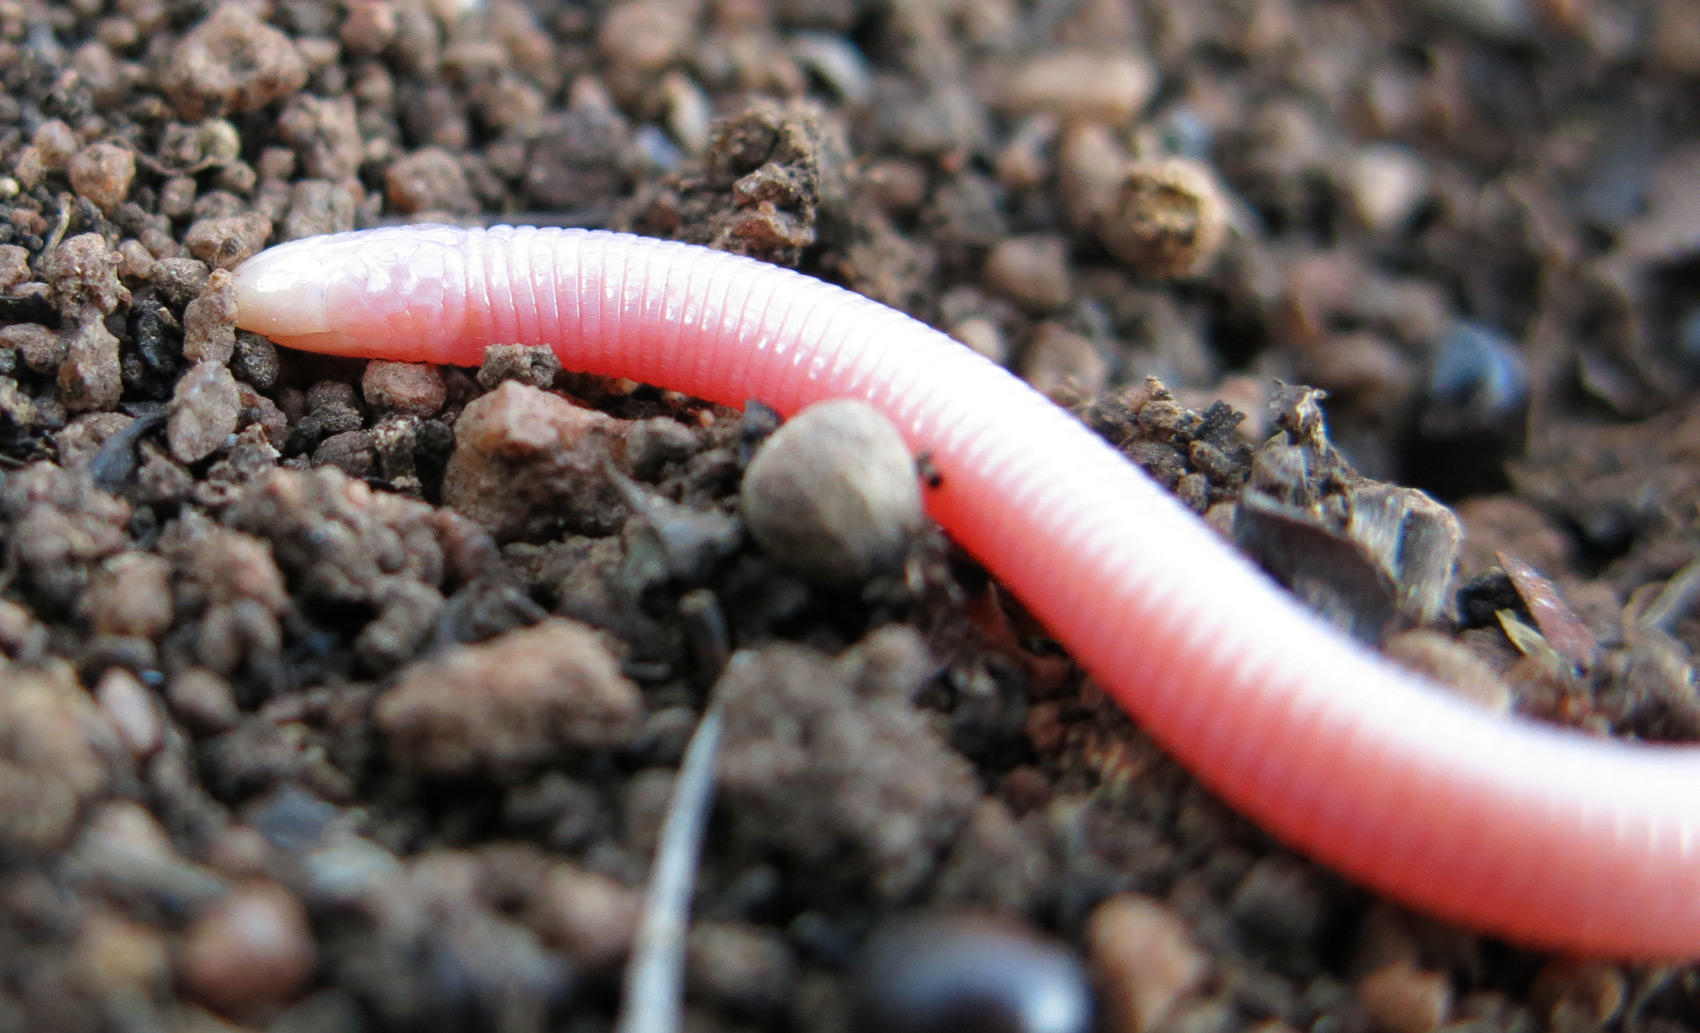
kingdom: Animalia
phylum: Chordata
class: Squamata
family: Amphisbaenidae
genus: Chirindia
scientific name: Chirindia langi
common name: Lang's worm lizard
